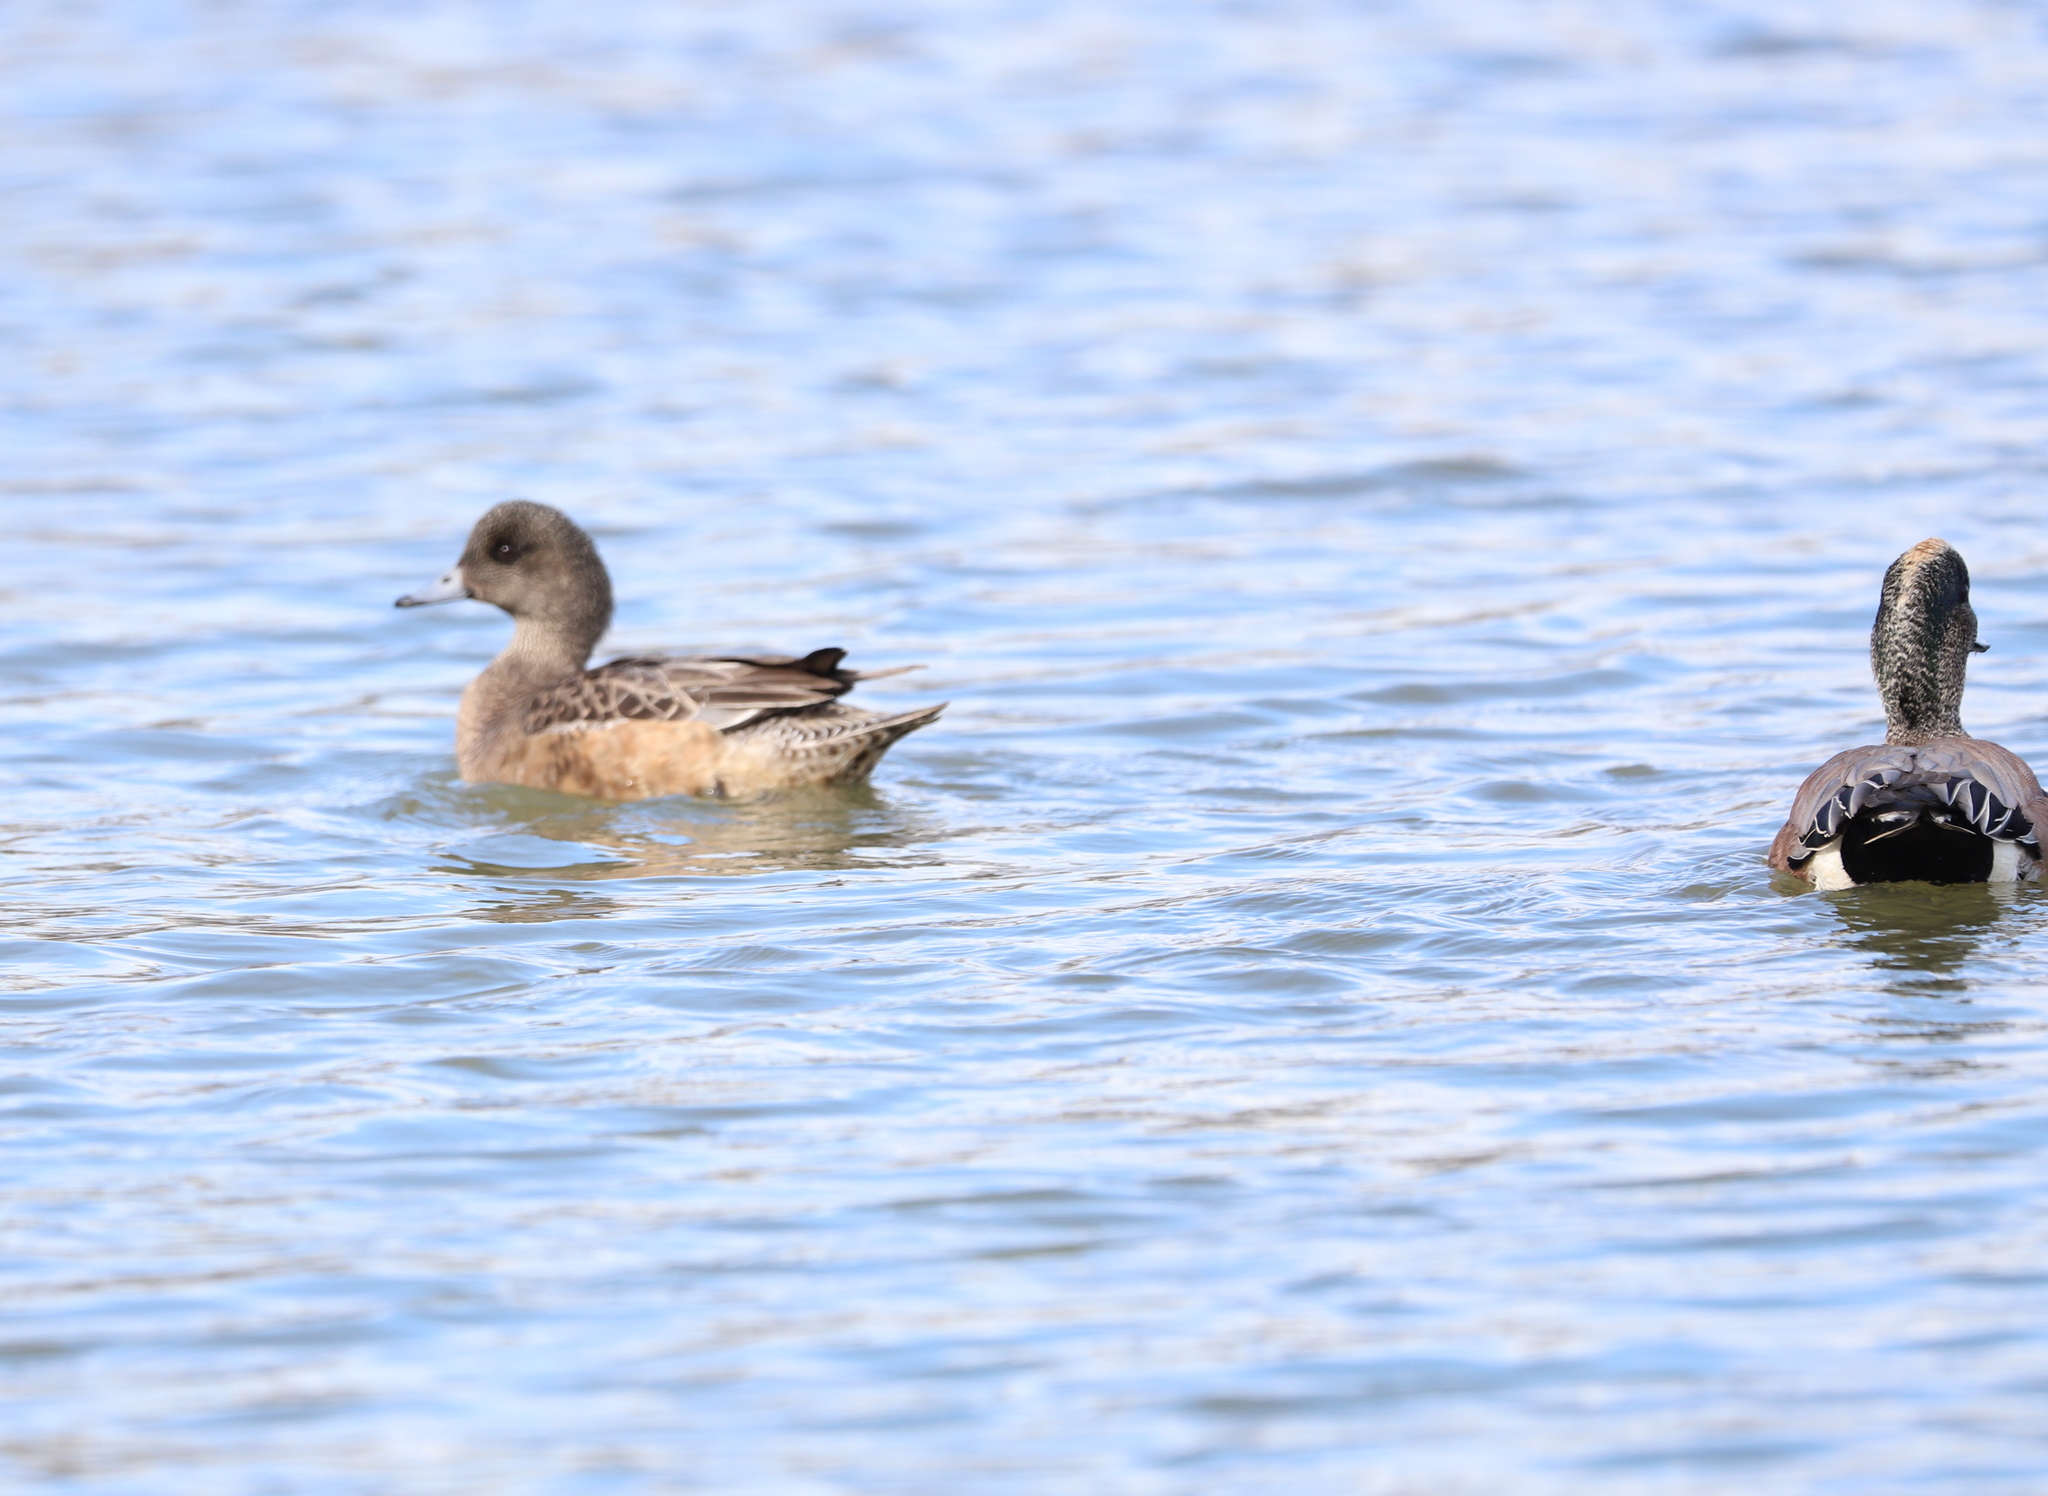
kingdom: Animalia
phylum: Chordata
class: Aves
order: Anseriformes
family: Anatidae
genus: Mareca
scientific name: Mareca americana
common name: American wigeon
